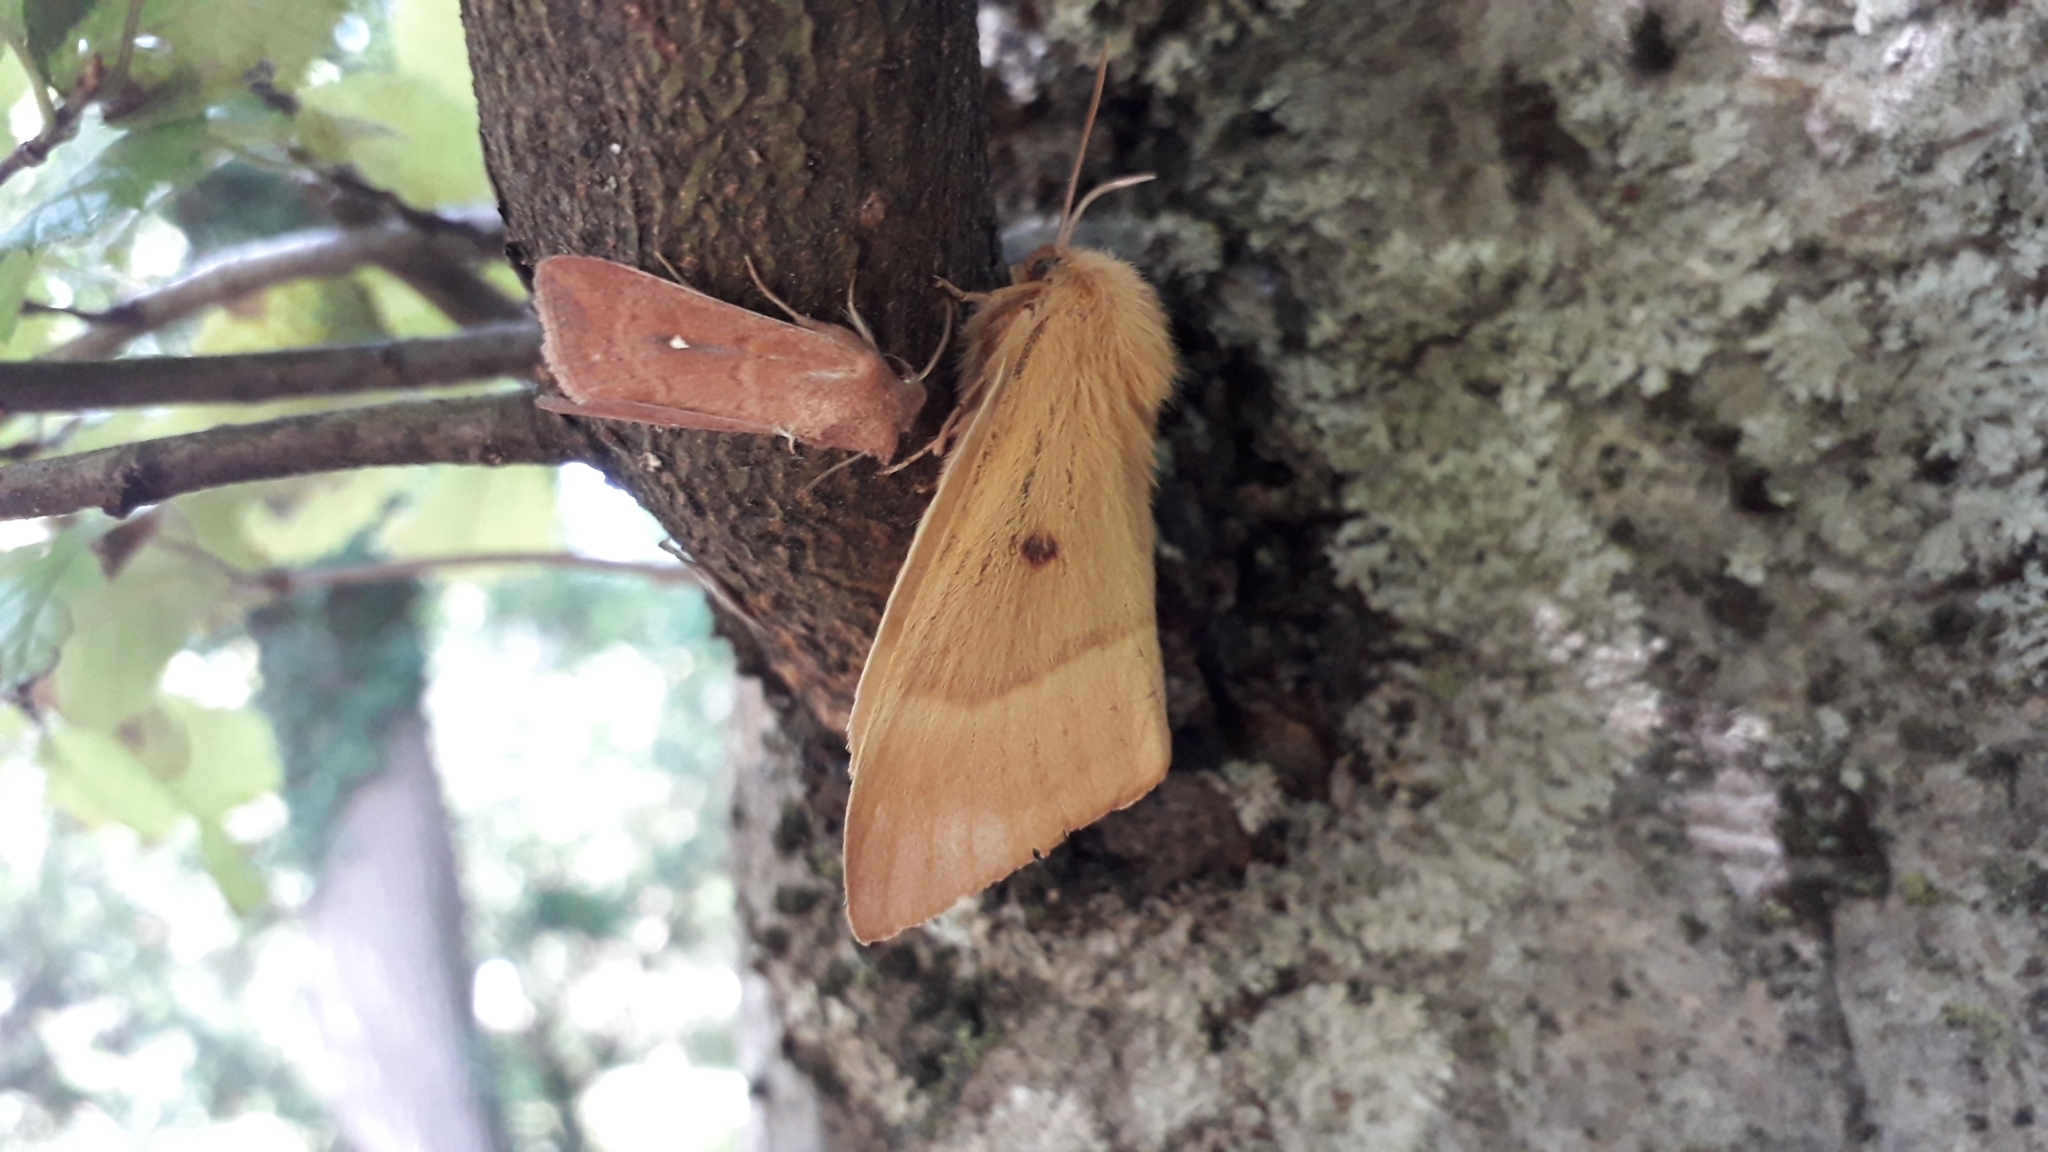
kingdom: Animalia
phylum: Arthropoda
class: Insecta
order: Lepidoptera
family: Noctuidae
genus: Mythimna
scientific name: Mythimna albipuncta
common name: White-point
